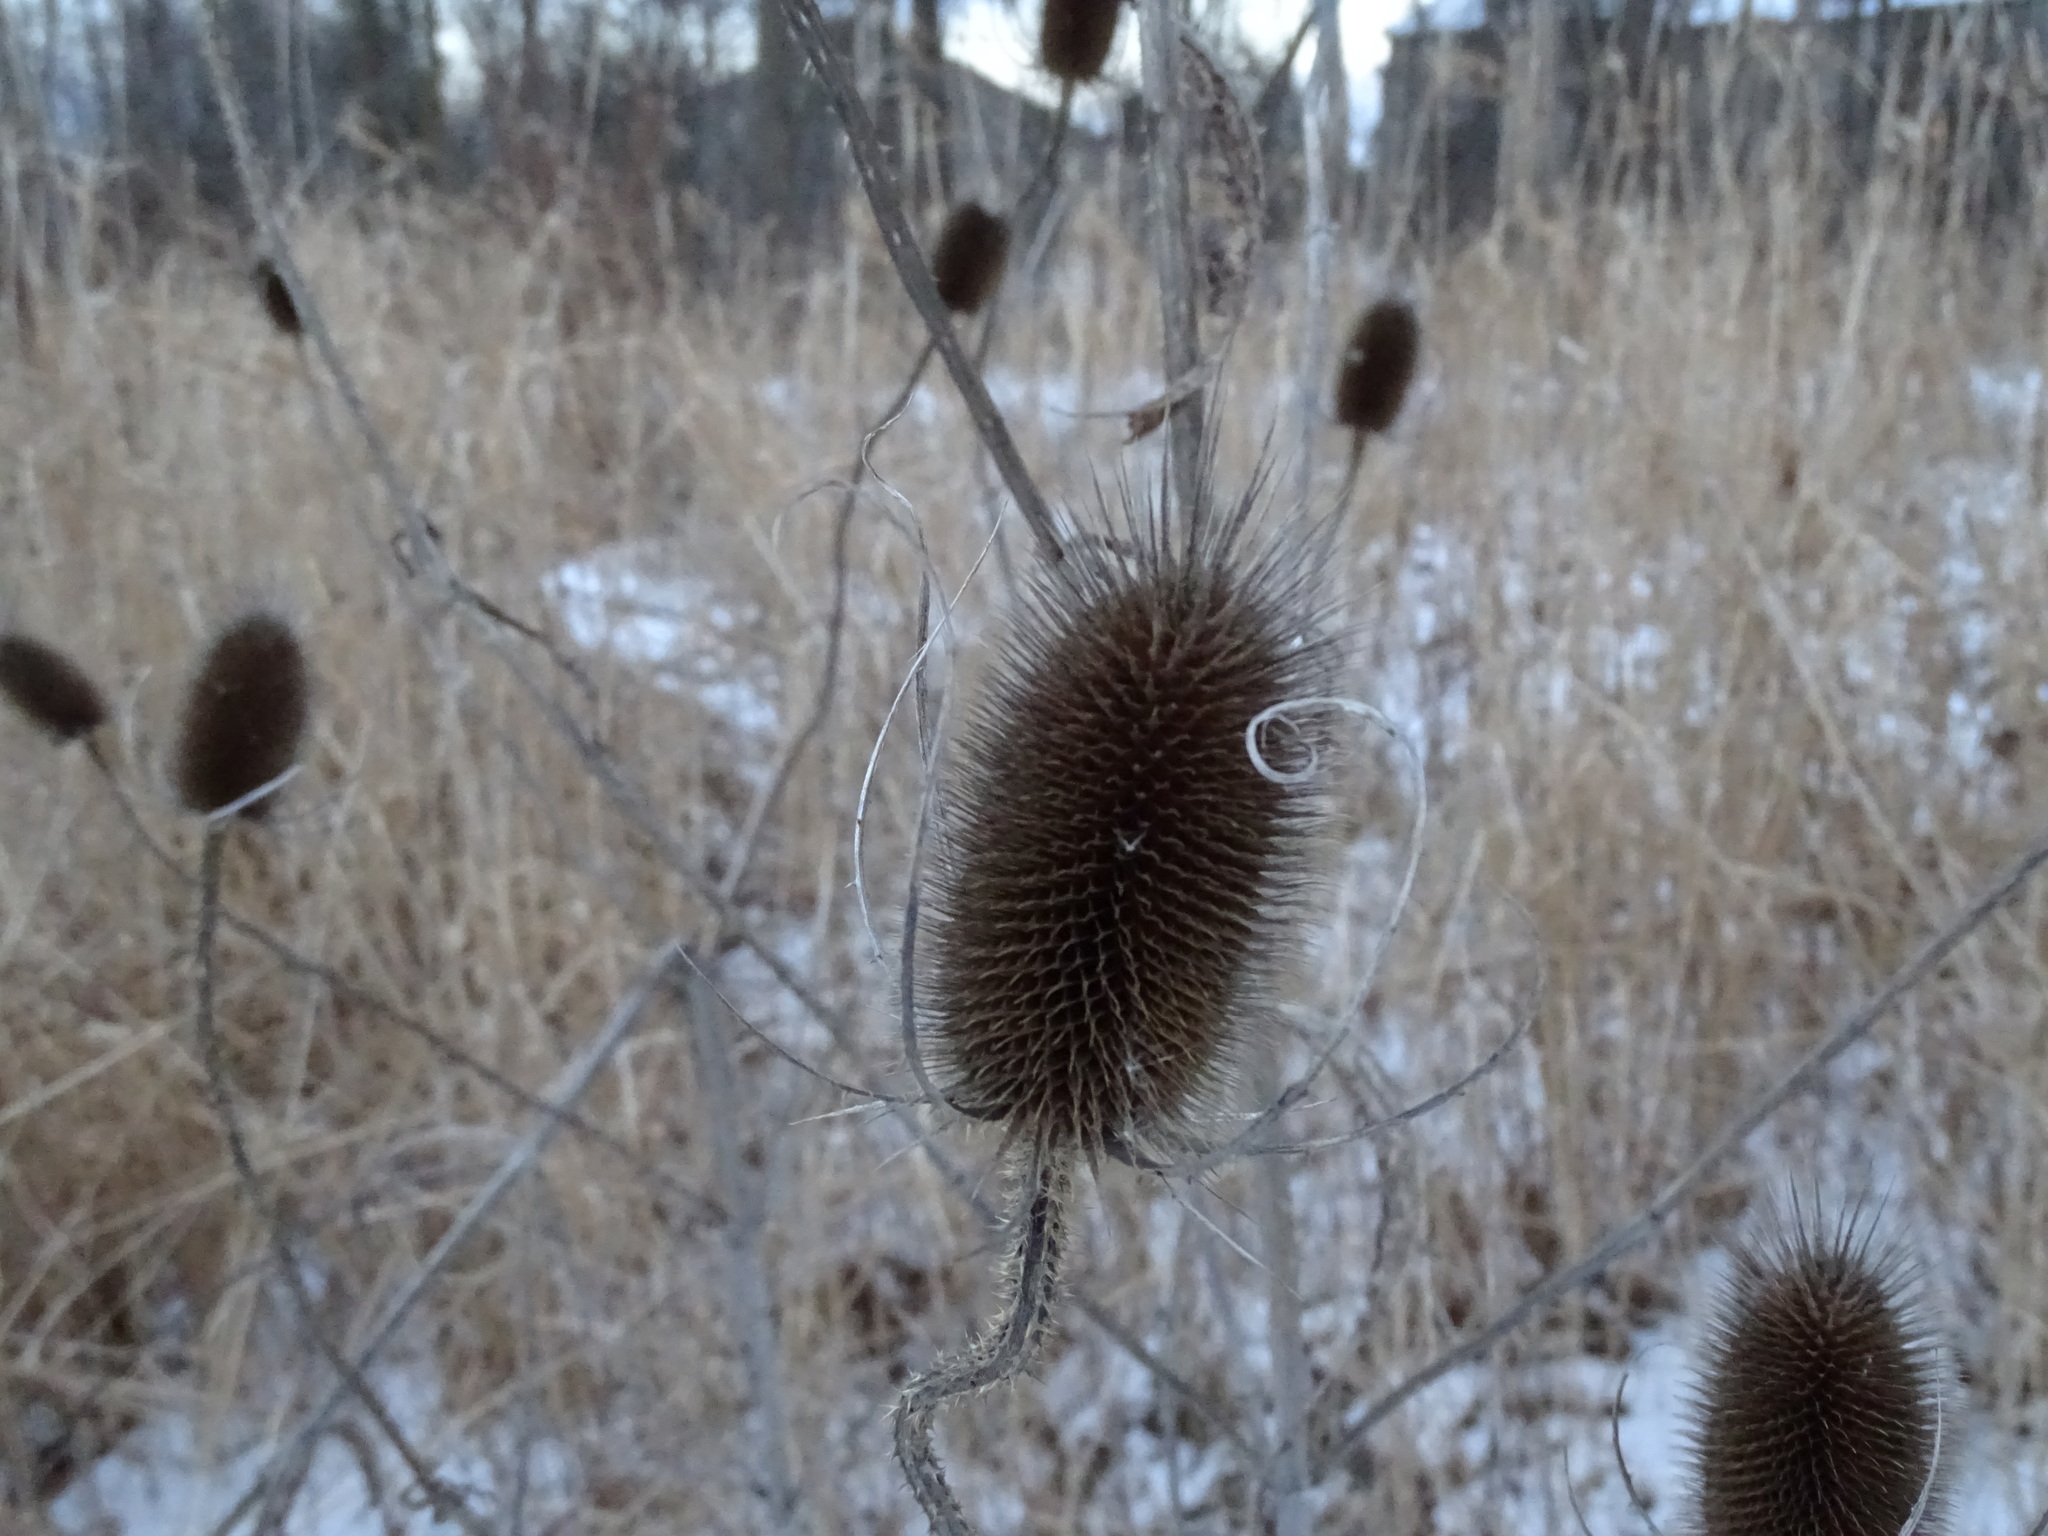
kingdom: Plantae
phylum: Tracheophyta
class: Magnoliopsida
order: Dipsacales
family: Caprifoliaceae
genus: Dipsacus
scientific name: Dipsacus fullonum
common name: Teasel
